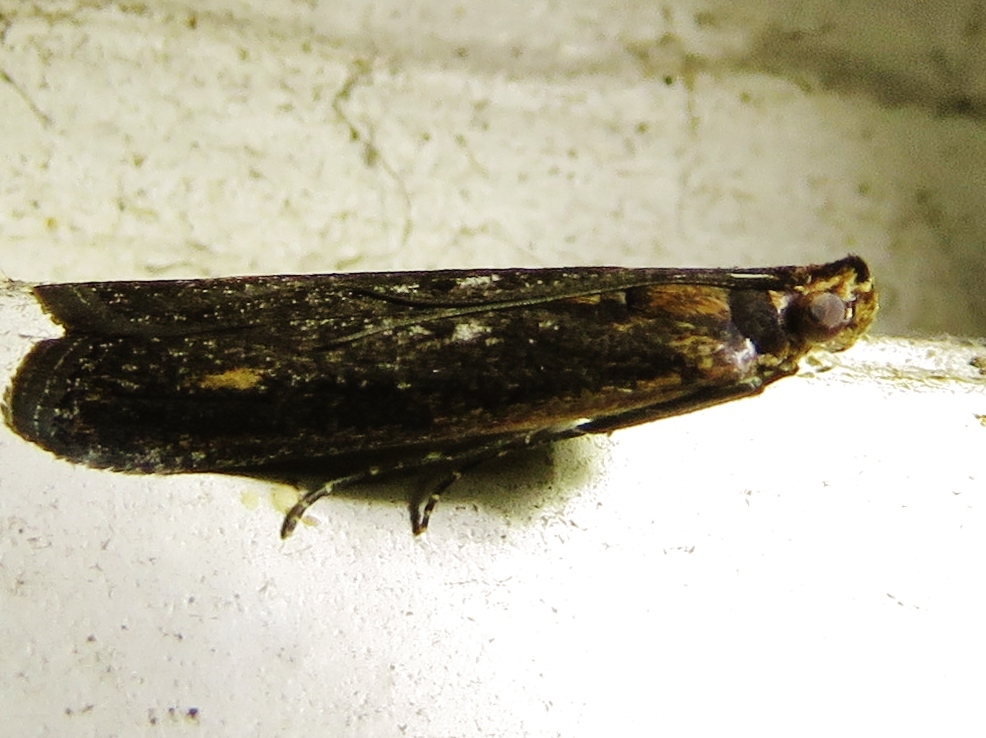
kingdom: Animalia
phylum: Arthropoda
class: Insecta
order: Lepidoptera
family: Pyralidae
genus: Elasmopalpus
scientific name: Elasmopalpus lignosella
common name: Lesser cornstalk borer
